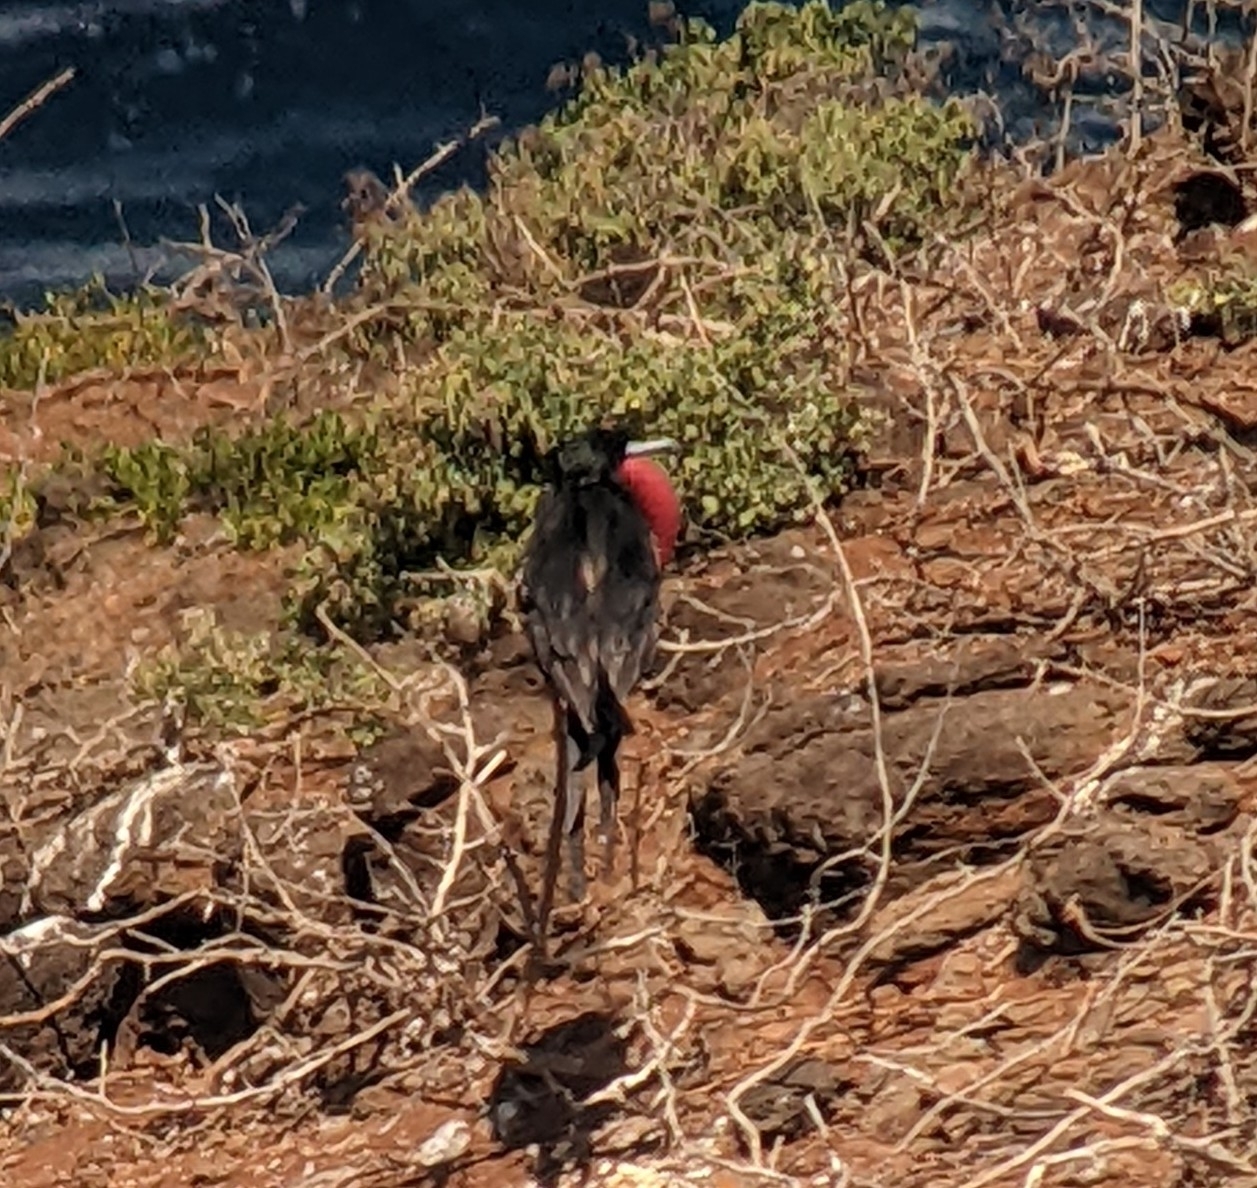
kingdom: Animalia
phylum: Chordata
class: Aves
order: Suliformes
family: Fregatidae
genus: Fregata
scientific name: Fregata minor
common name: Great frigatebird
